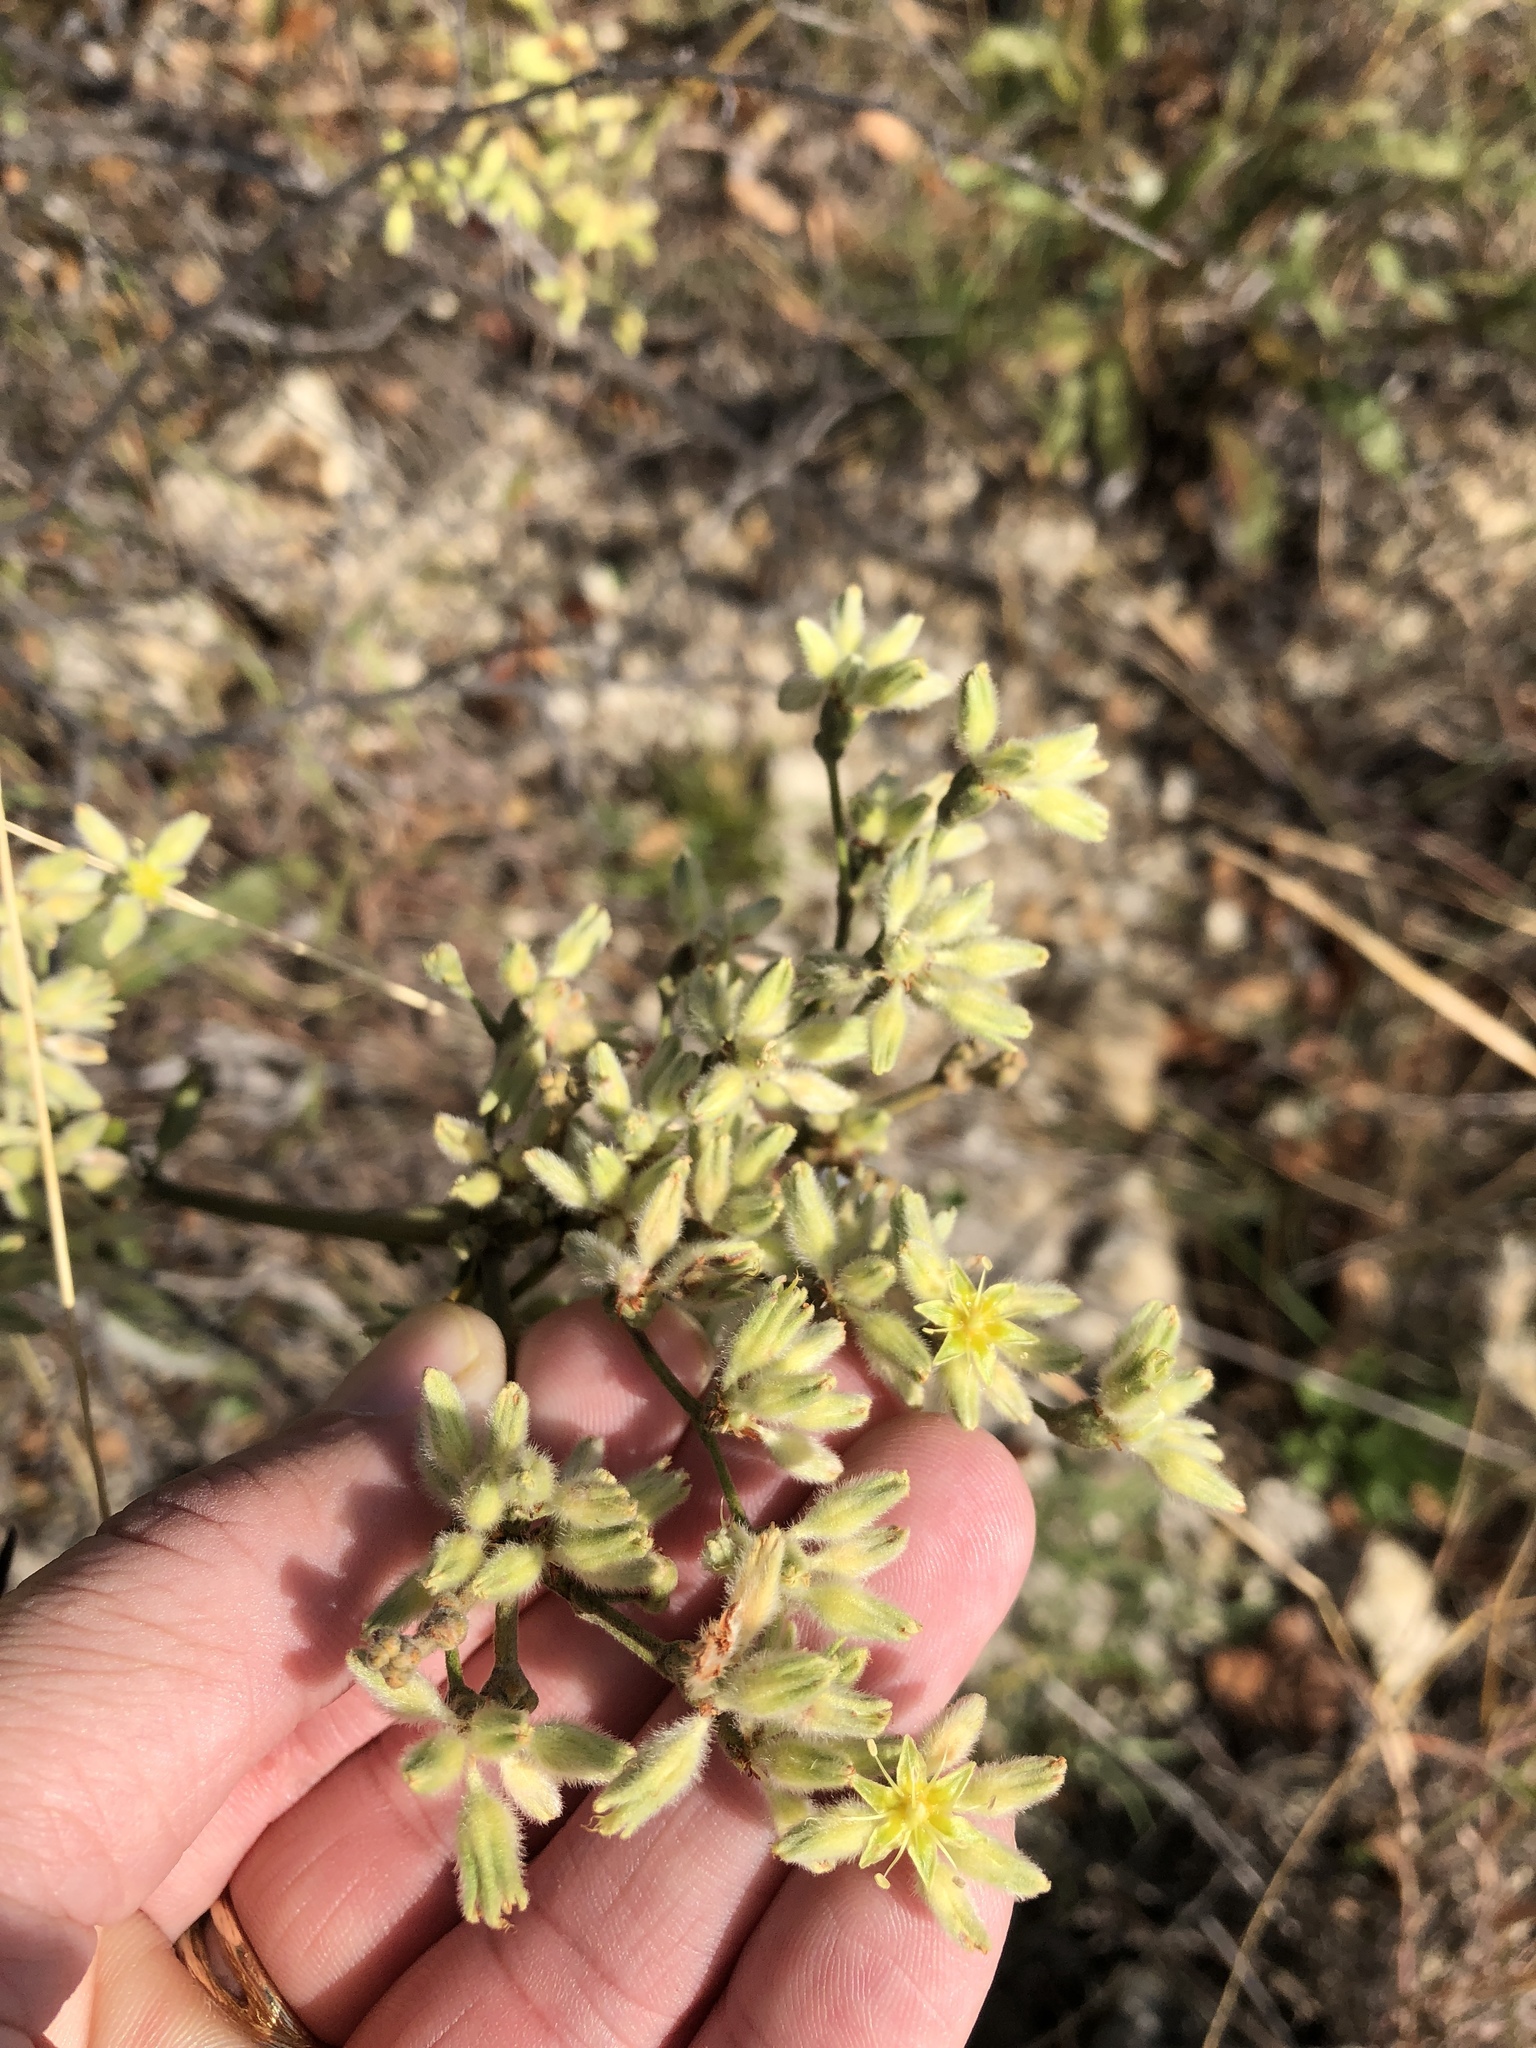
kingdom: Plantae
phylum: Tracheophyta
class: Magnoliopsida
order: Caryophyllales
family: Polygonaceae
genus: Eriogonum
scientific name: Eriogonum longifolium
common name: Longleaf wild buckwheat
